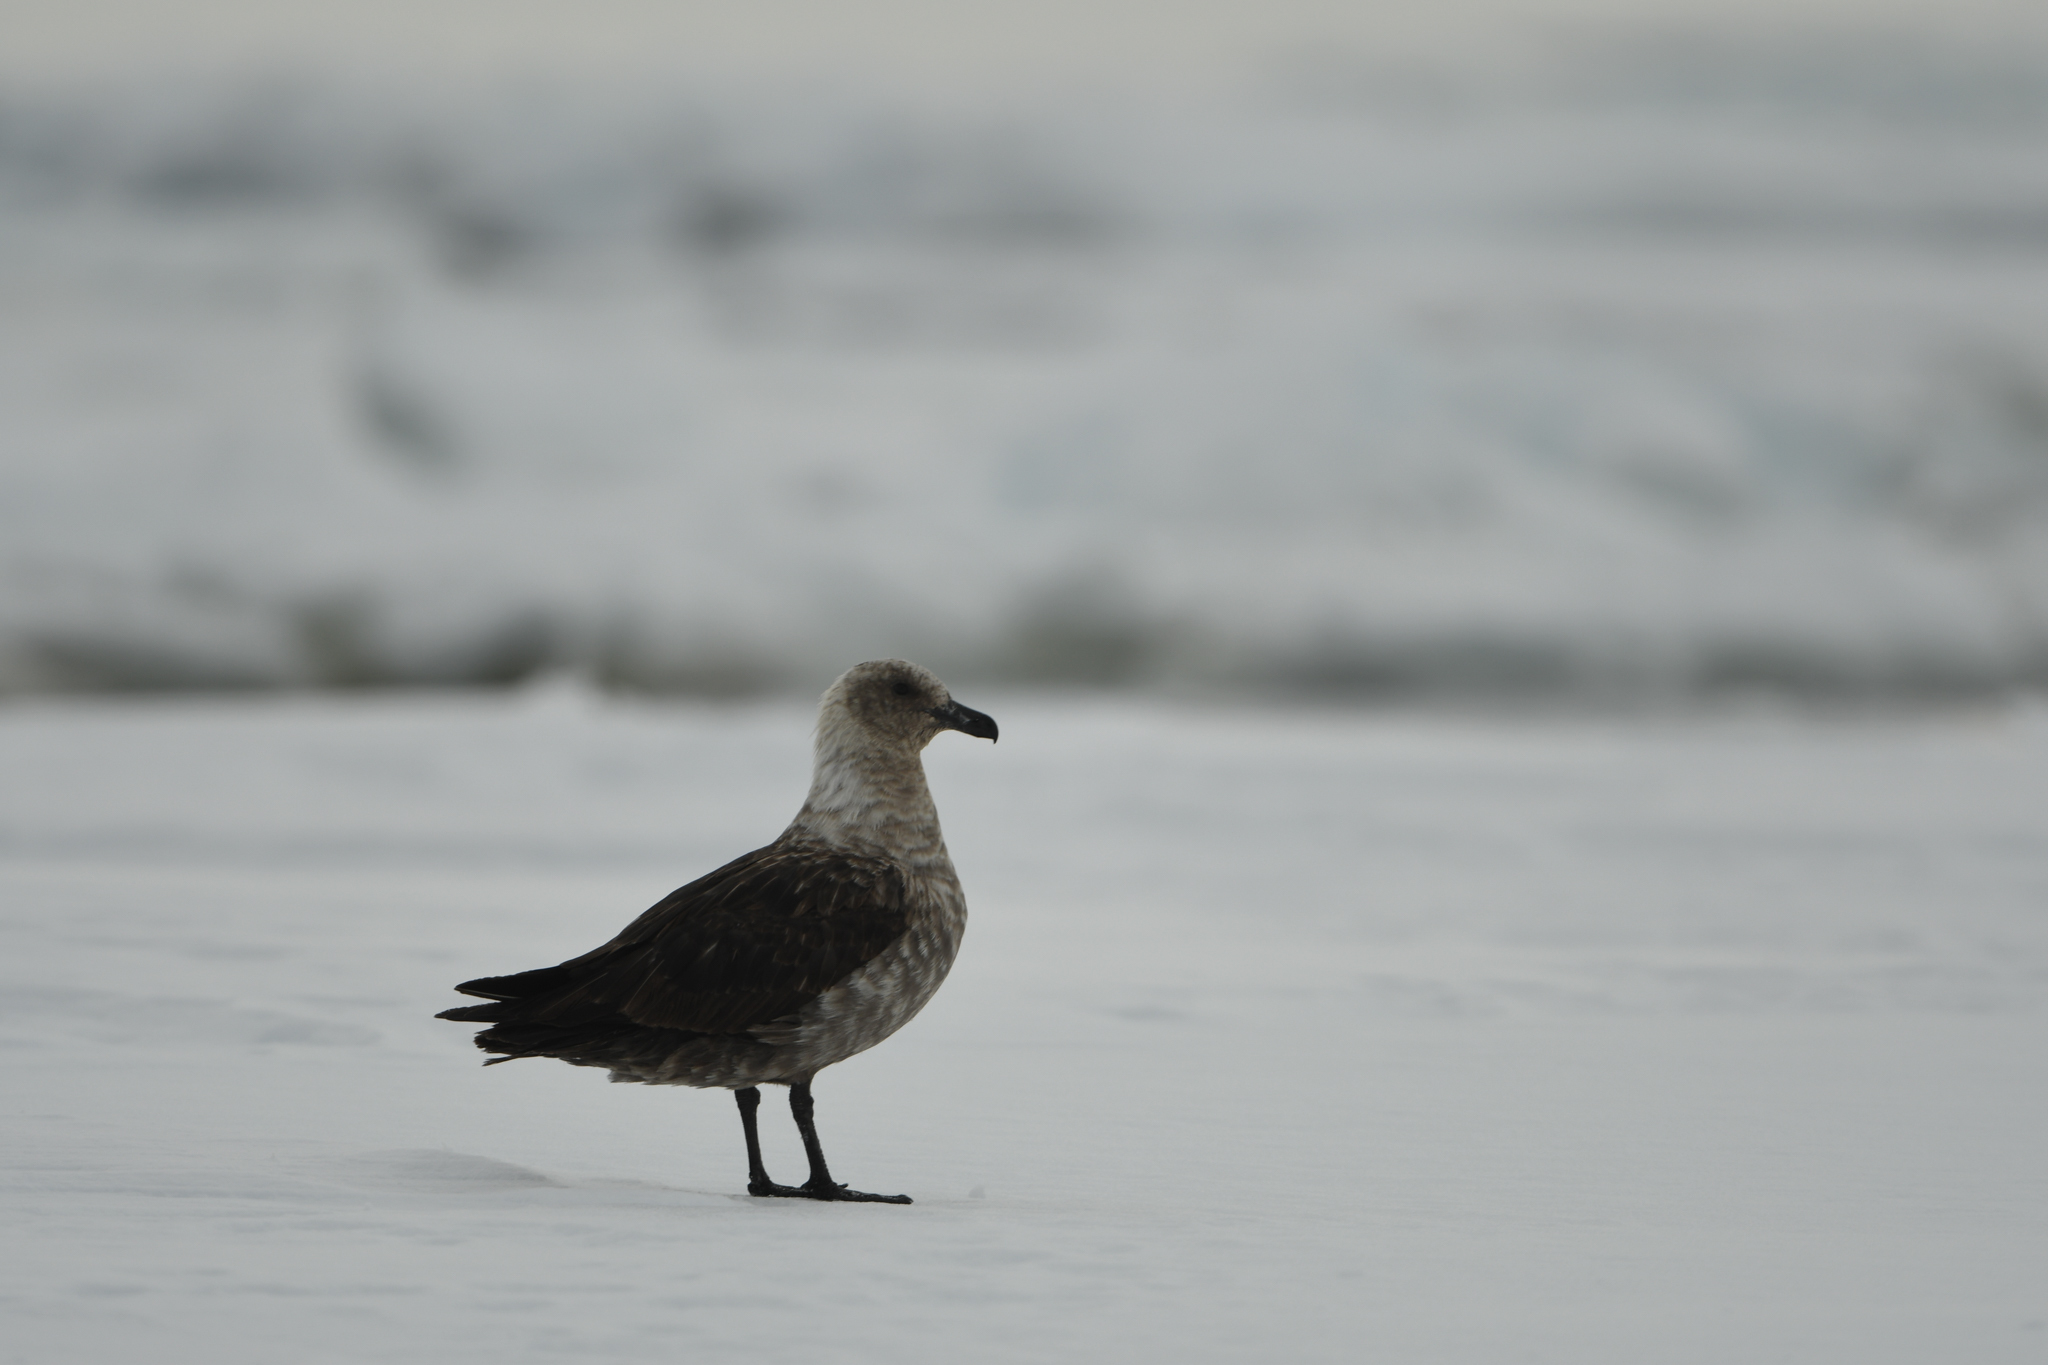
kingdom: Animalia
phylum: Chordata
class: Aves
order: Charadriiformes
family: Stercorariidae
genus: Stercorarius
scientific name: Stercorarius maccormicki
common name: South polar skua
